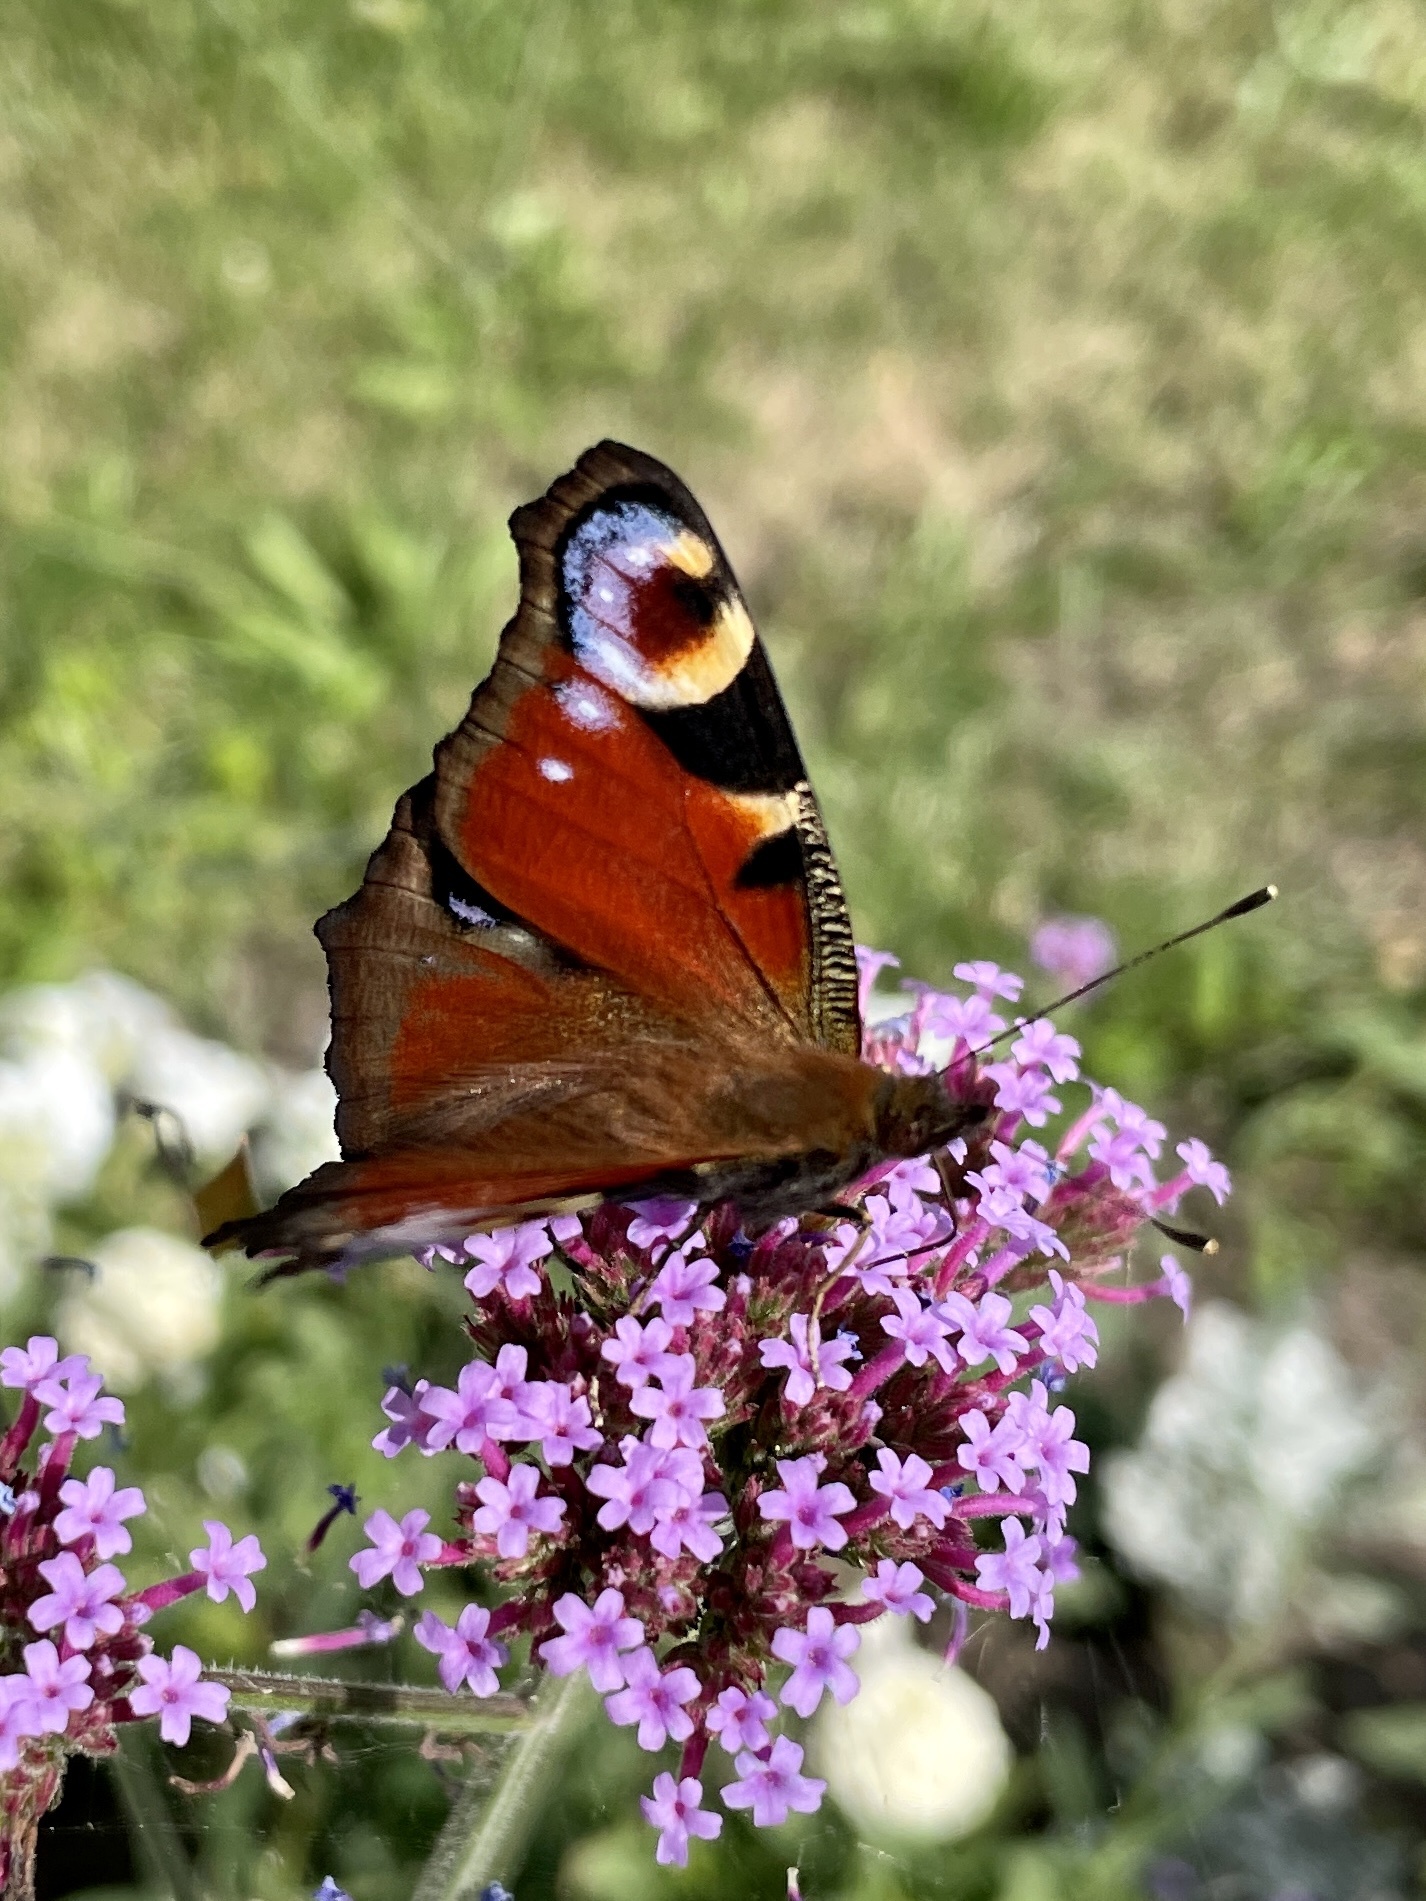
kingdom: Animalia
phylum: Arthropoda
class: Insecta
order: Lepidoptera
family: Nymphalidae
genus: Aglais
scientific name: Aglais io
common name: Peacock
